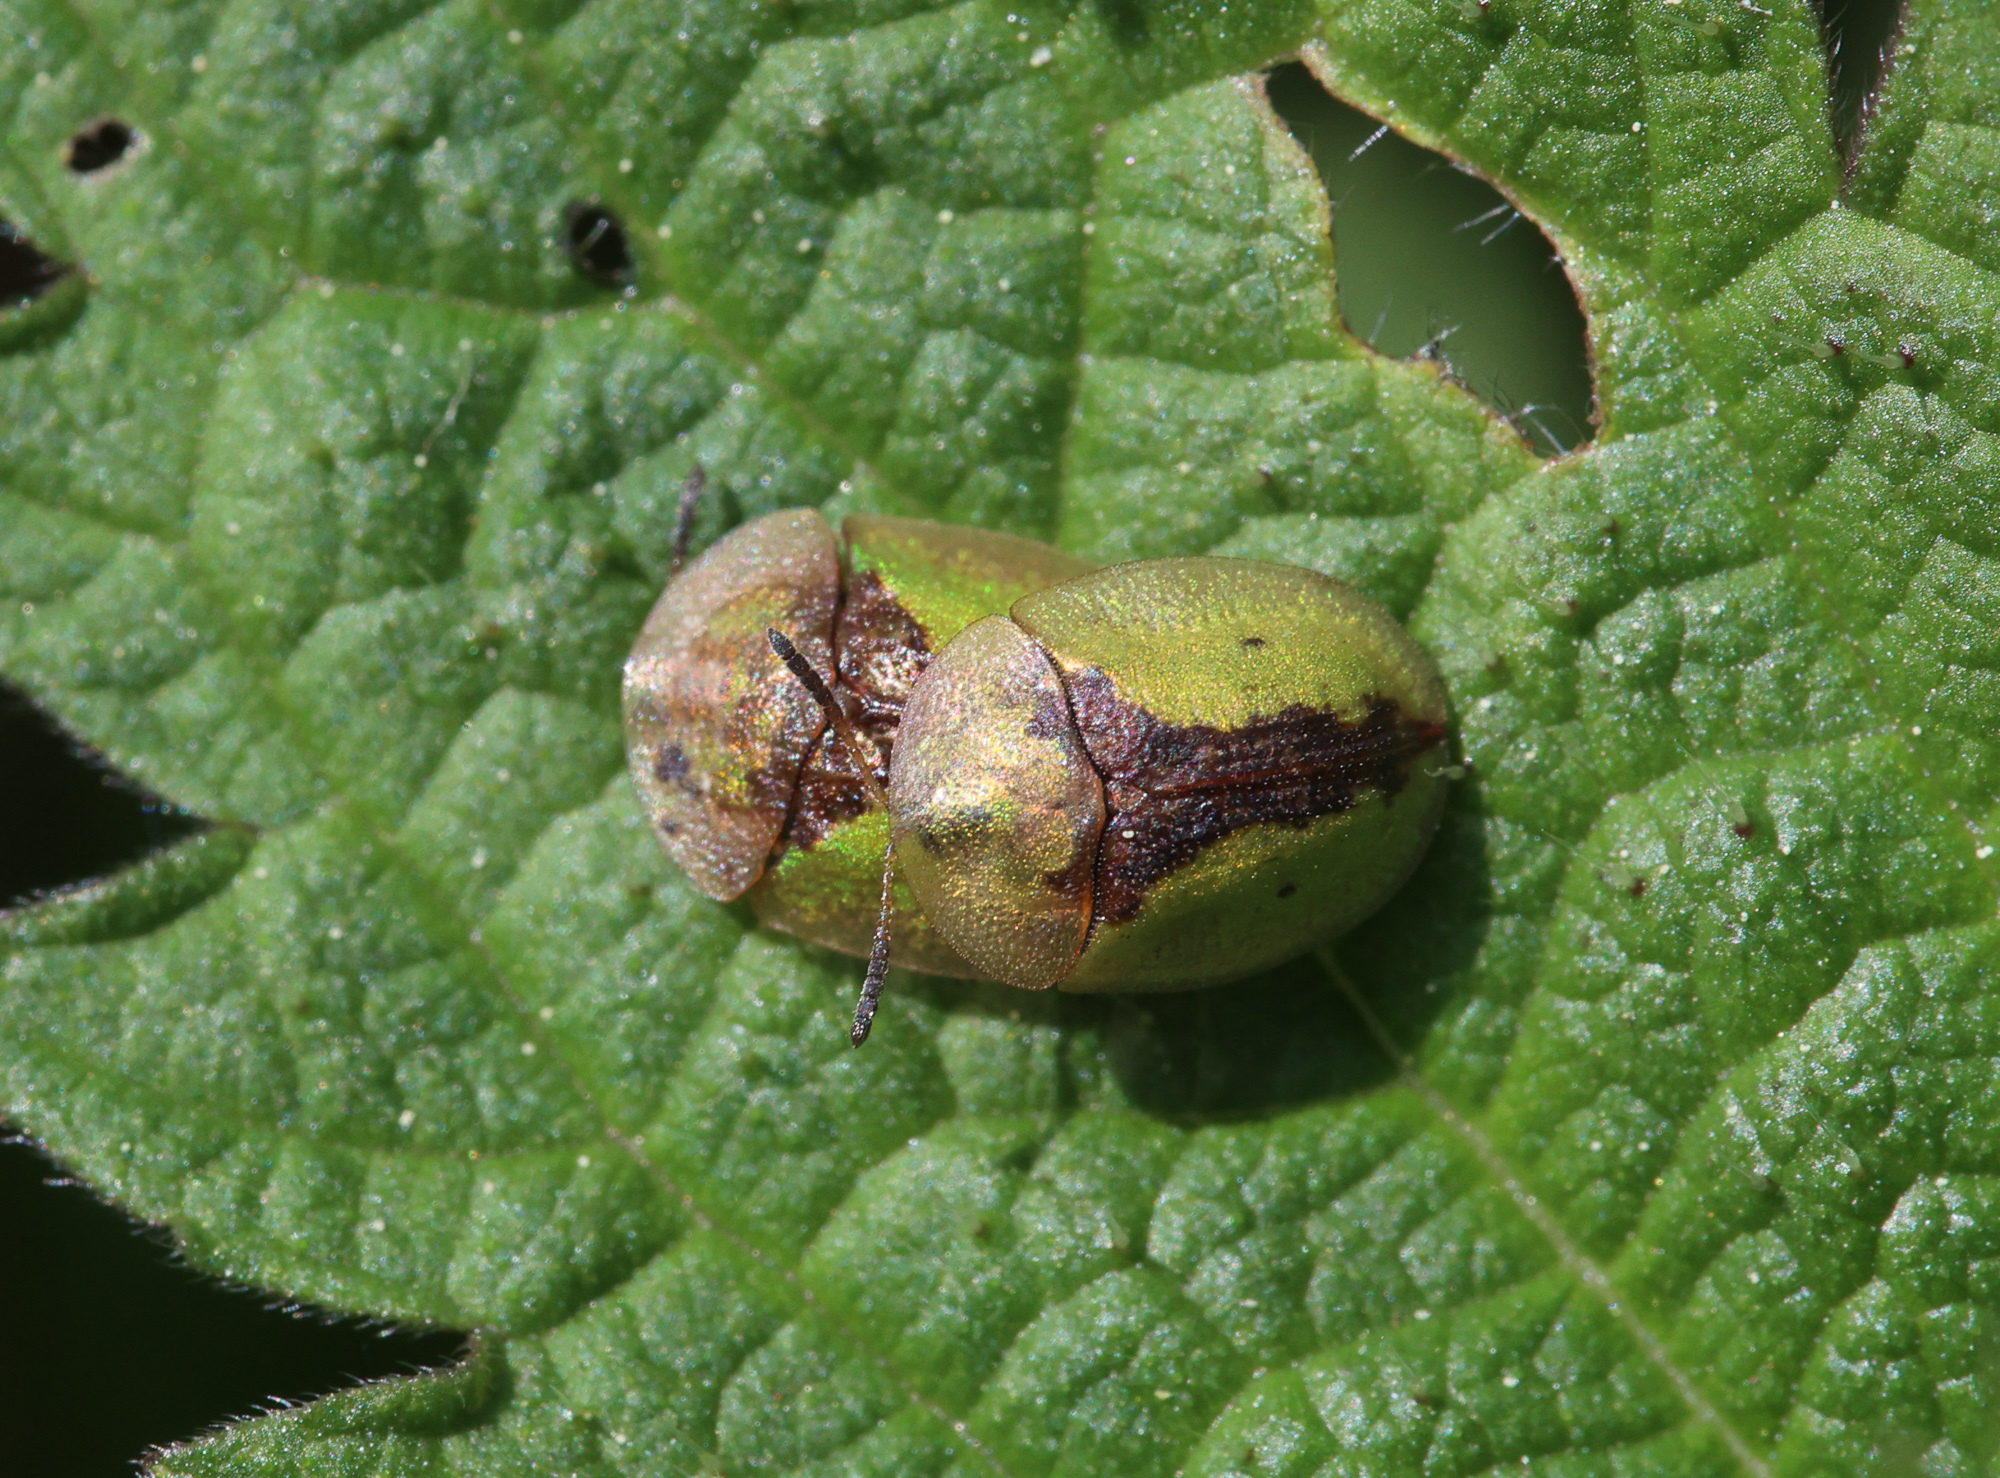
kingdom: Animalia
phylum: Arthropoda
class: Insecta
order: Coleoptera
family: Chrysomelidae
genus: Cassida
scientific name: Cassida vibex
